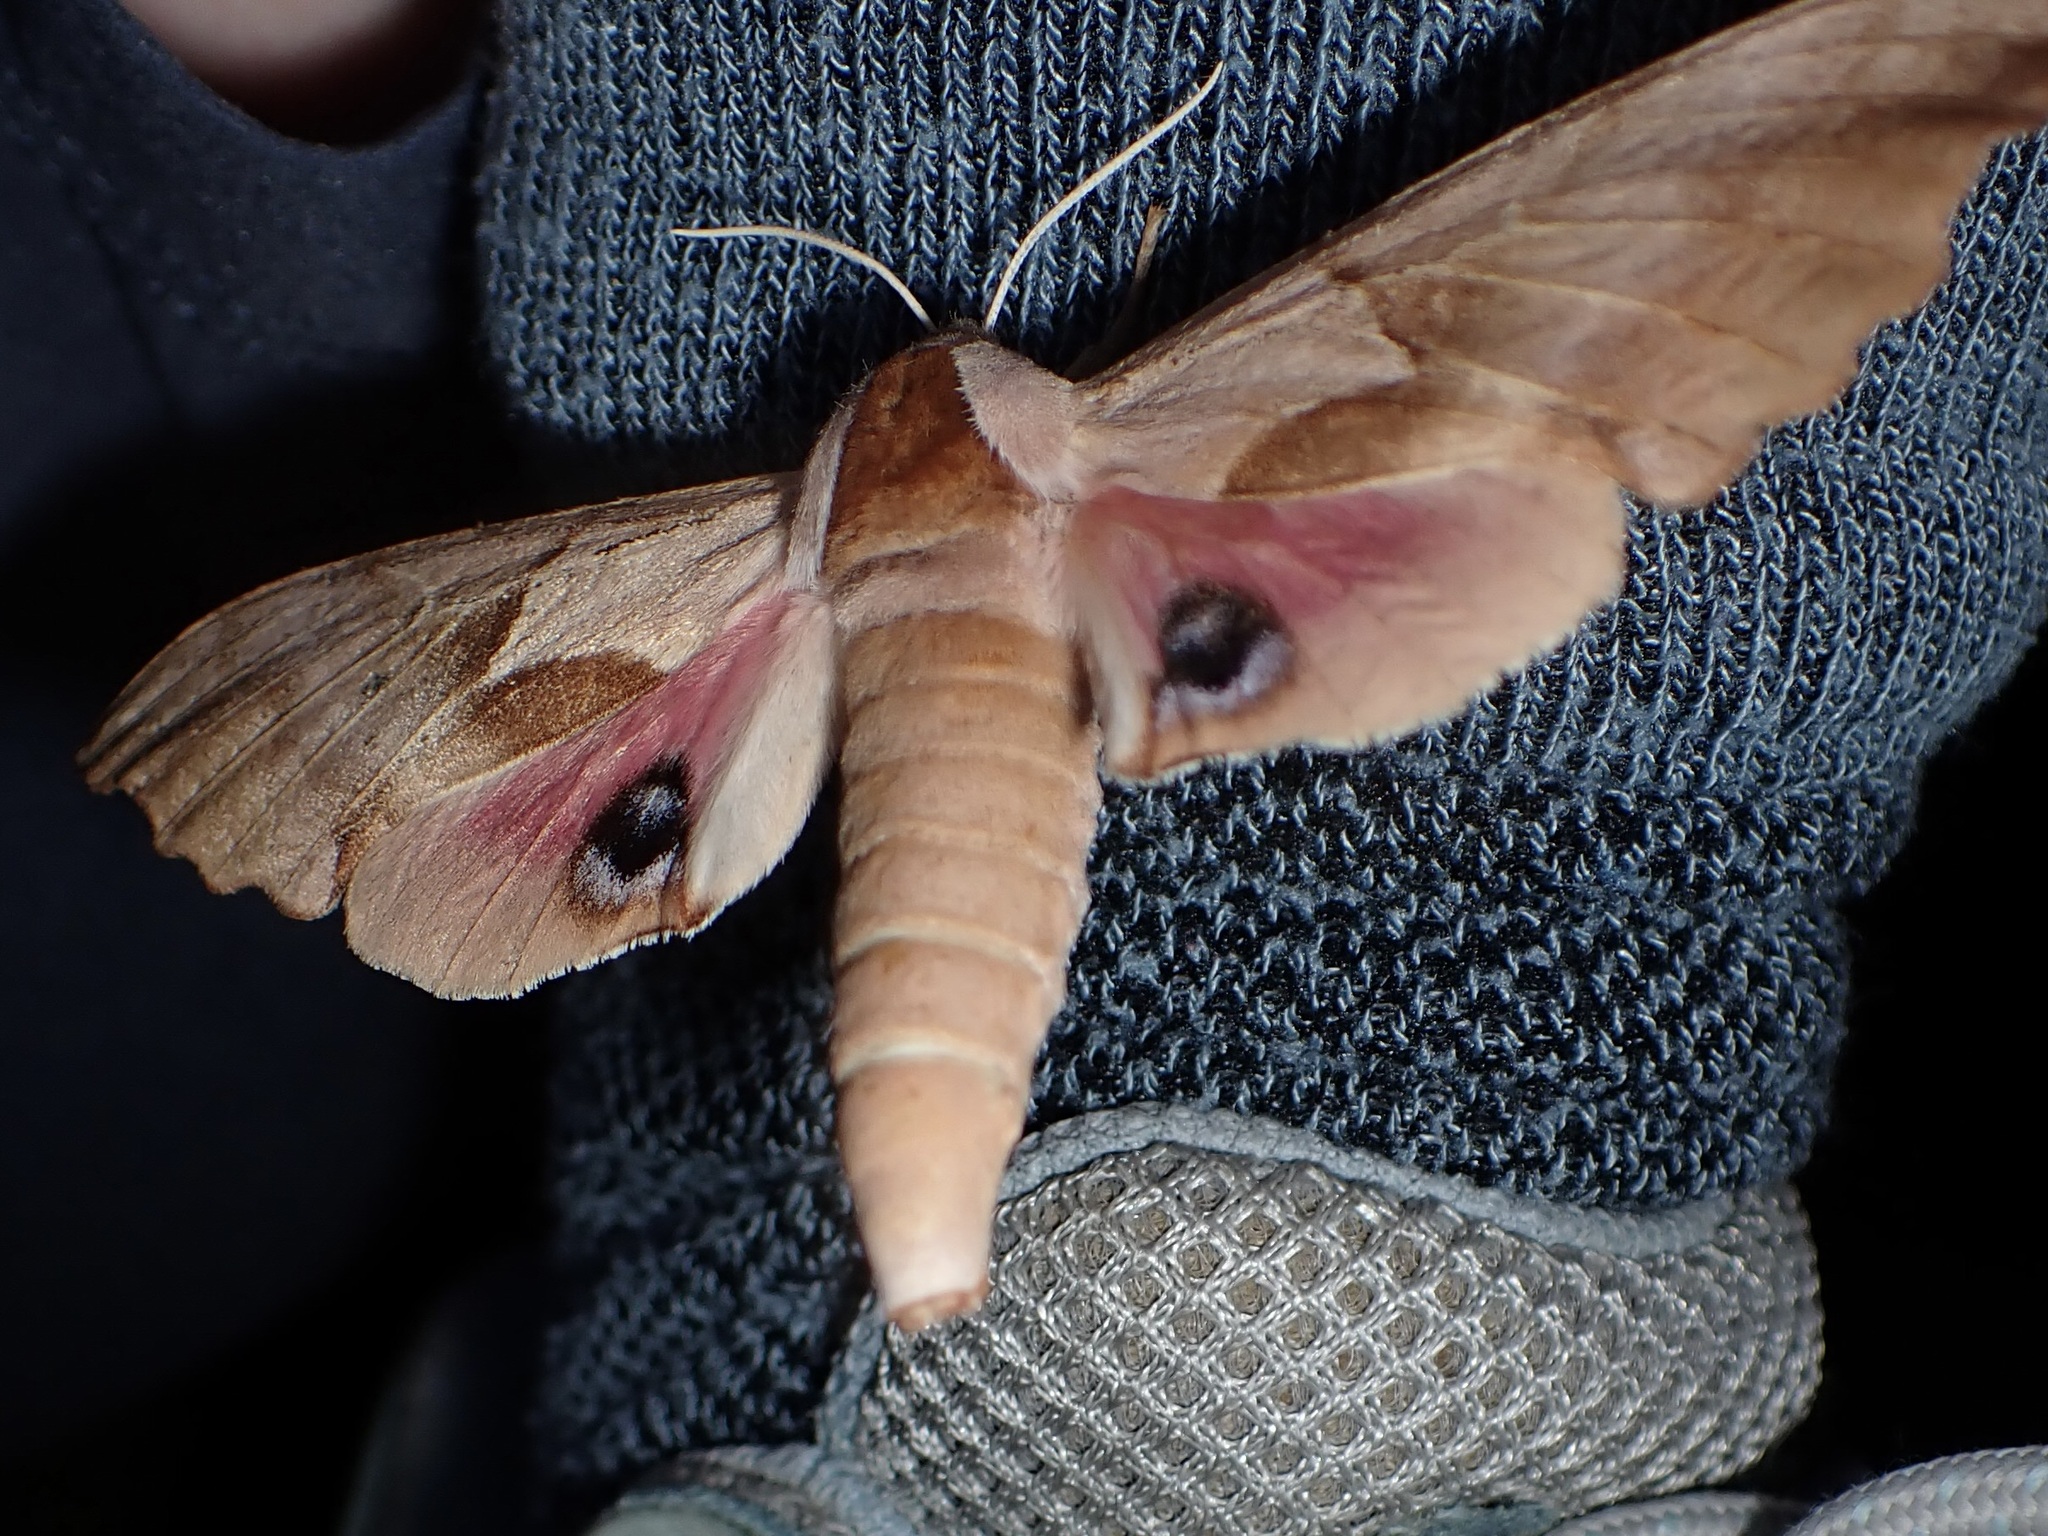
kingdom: Animalia
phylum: Arthropoda
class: Insecta
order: Lepidoptera
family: Sphingidae
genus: Smerinthus
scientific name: Smerinthus saliceti
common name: Salicet sphinx
